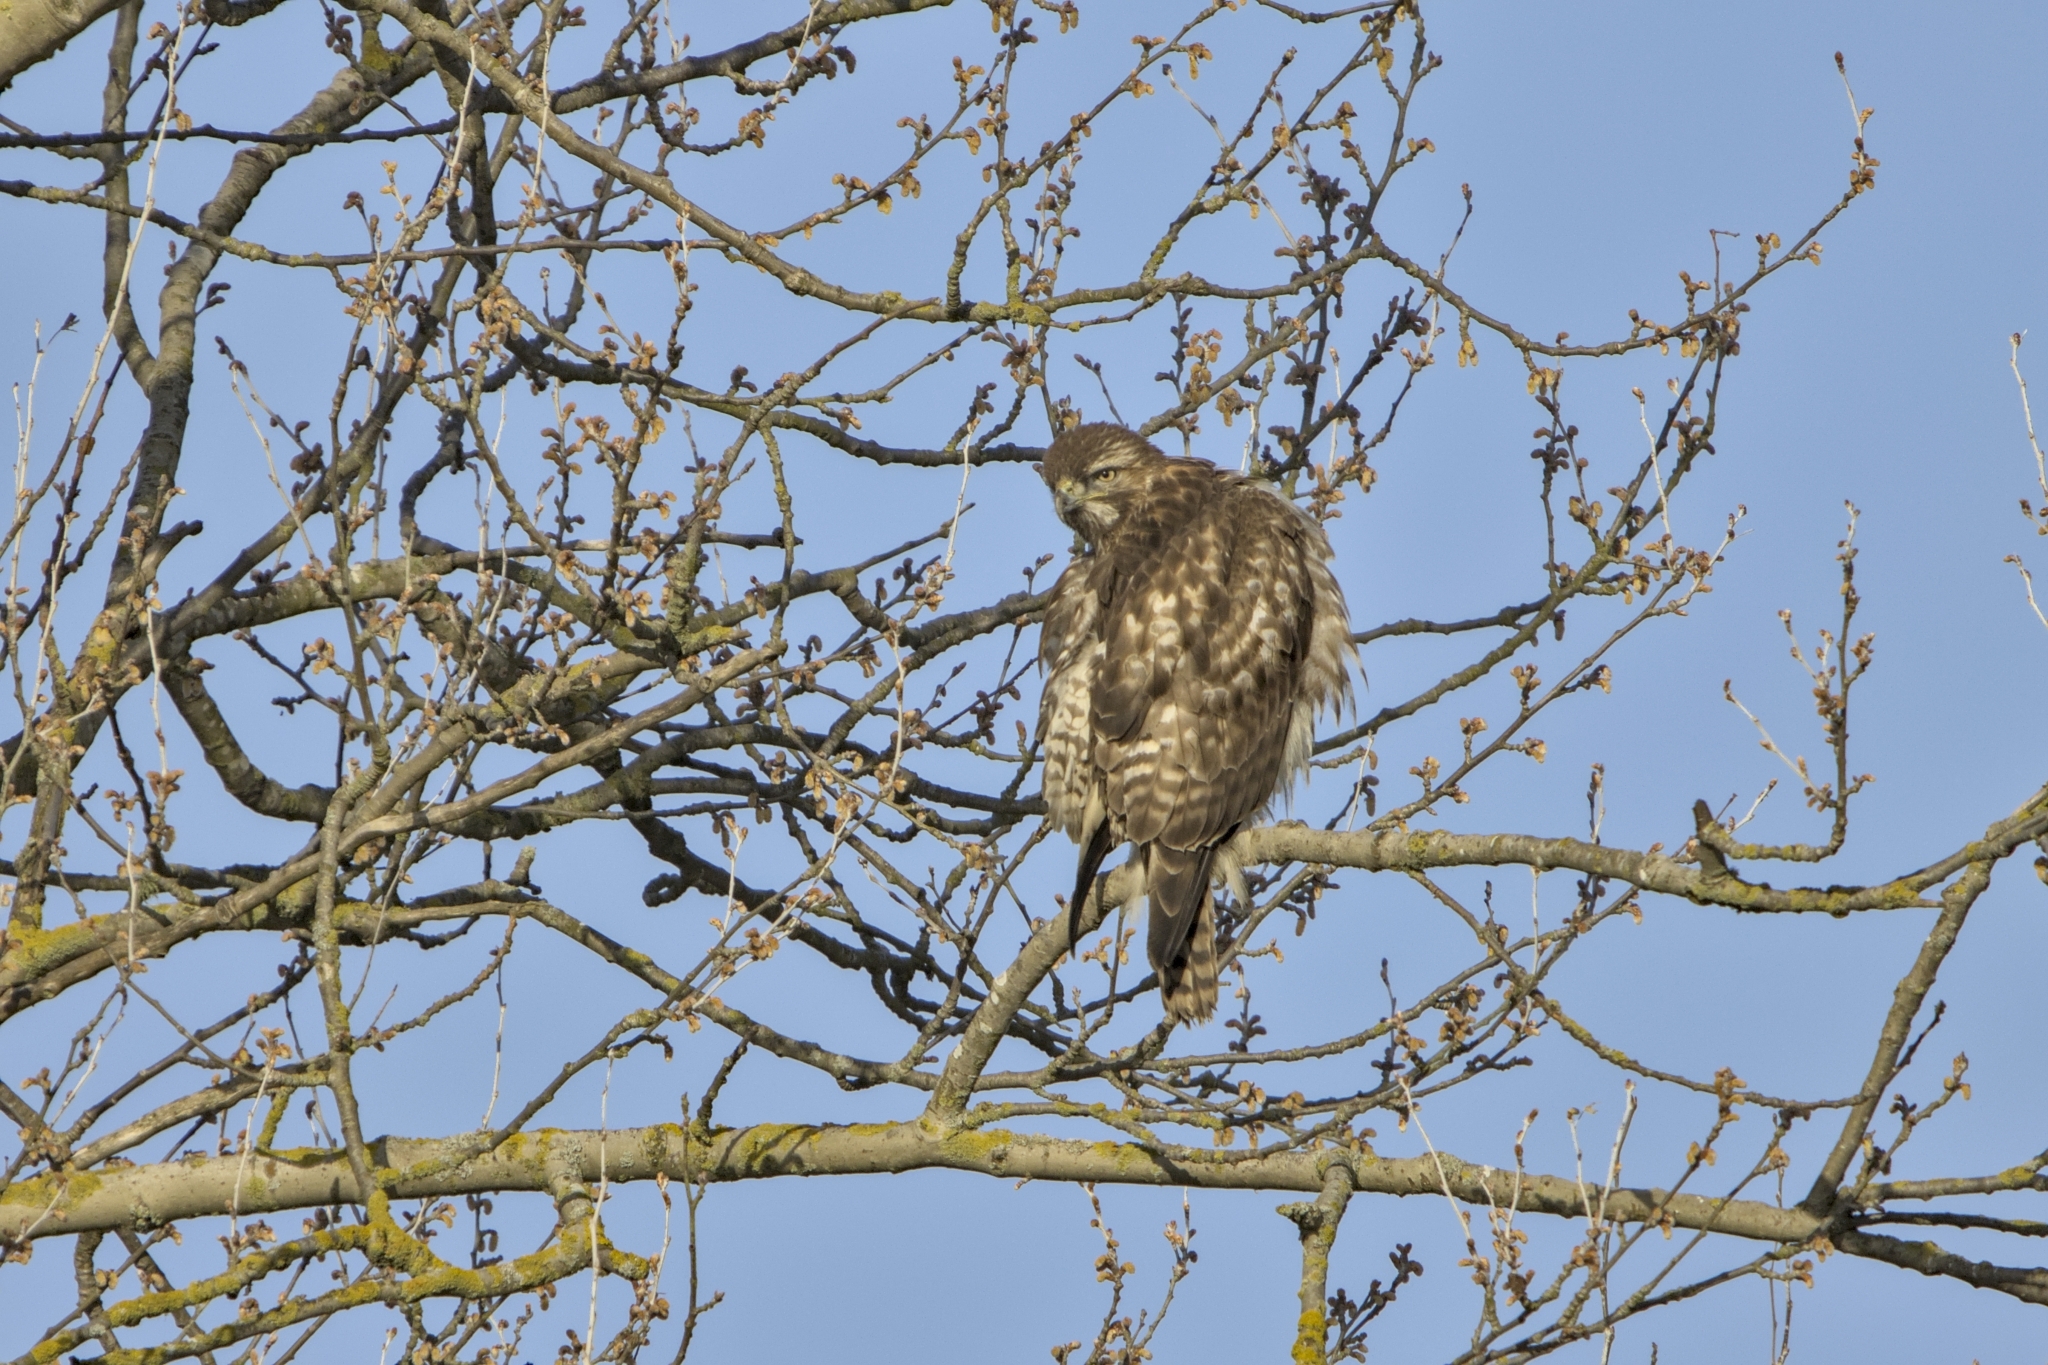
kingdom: Animalia
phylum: Chordata
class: Aves
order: Accipitriformes
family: Accipitridae
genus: Buteo
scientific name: Buteo jamaicensis
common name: Red-tailed hawk
